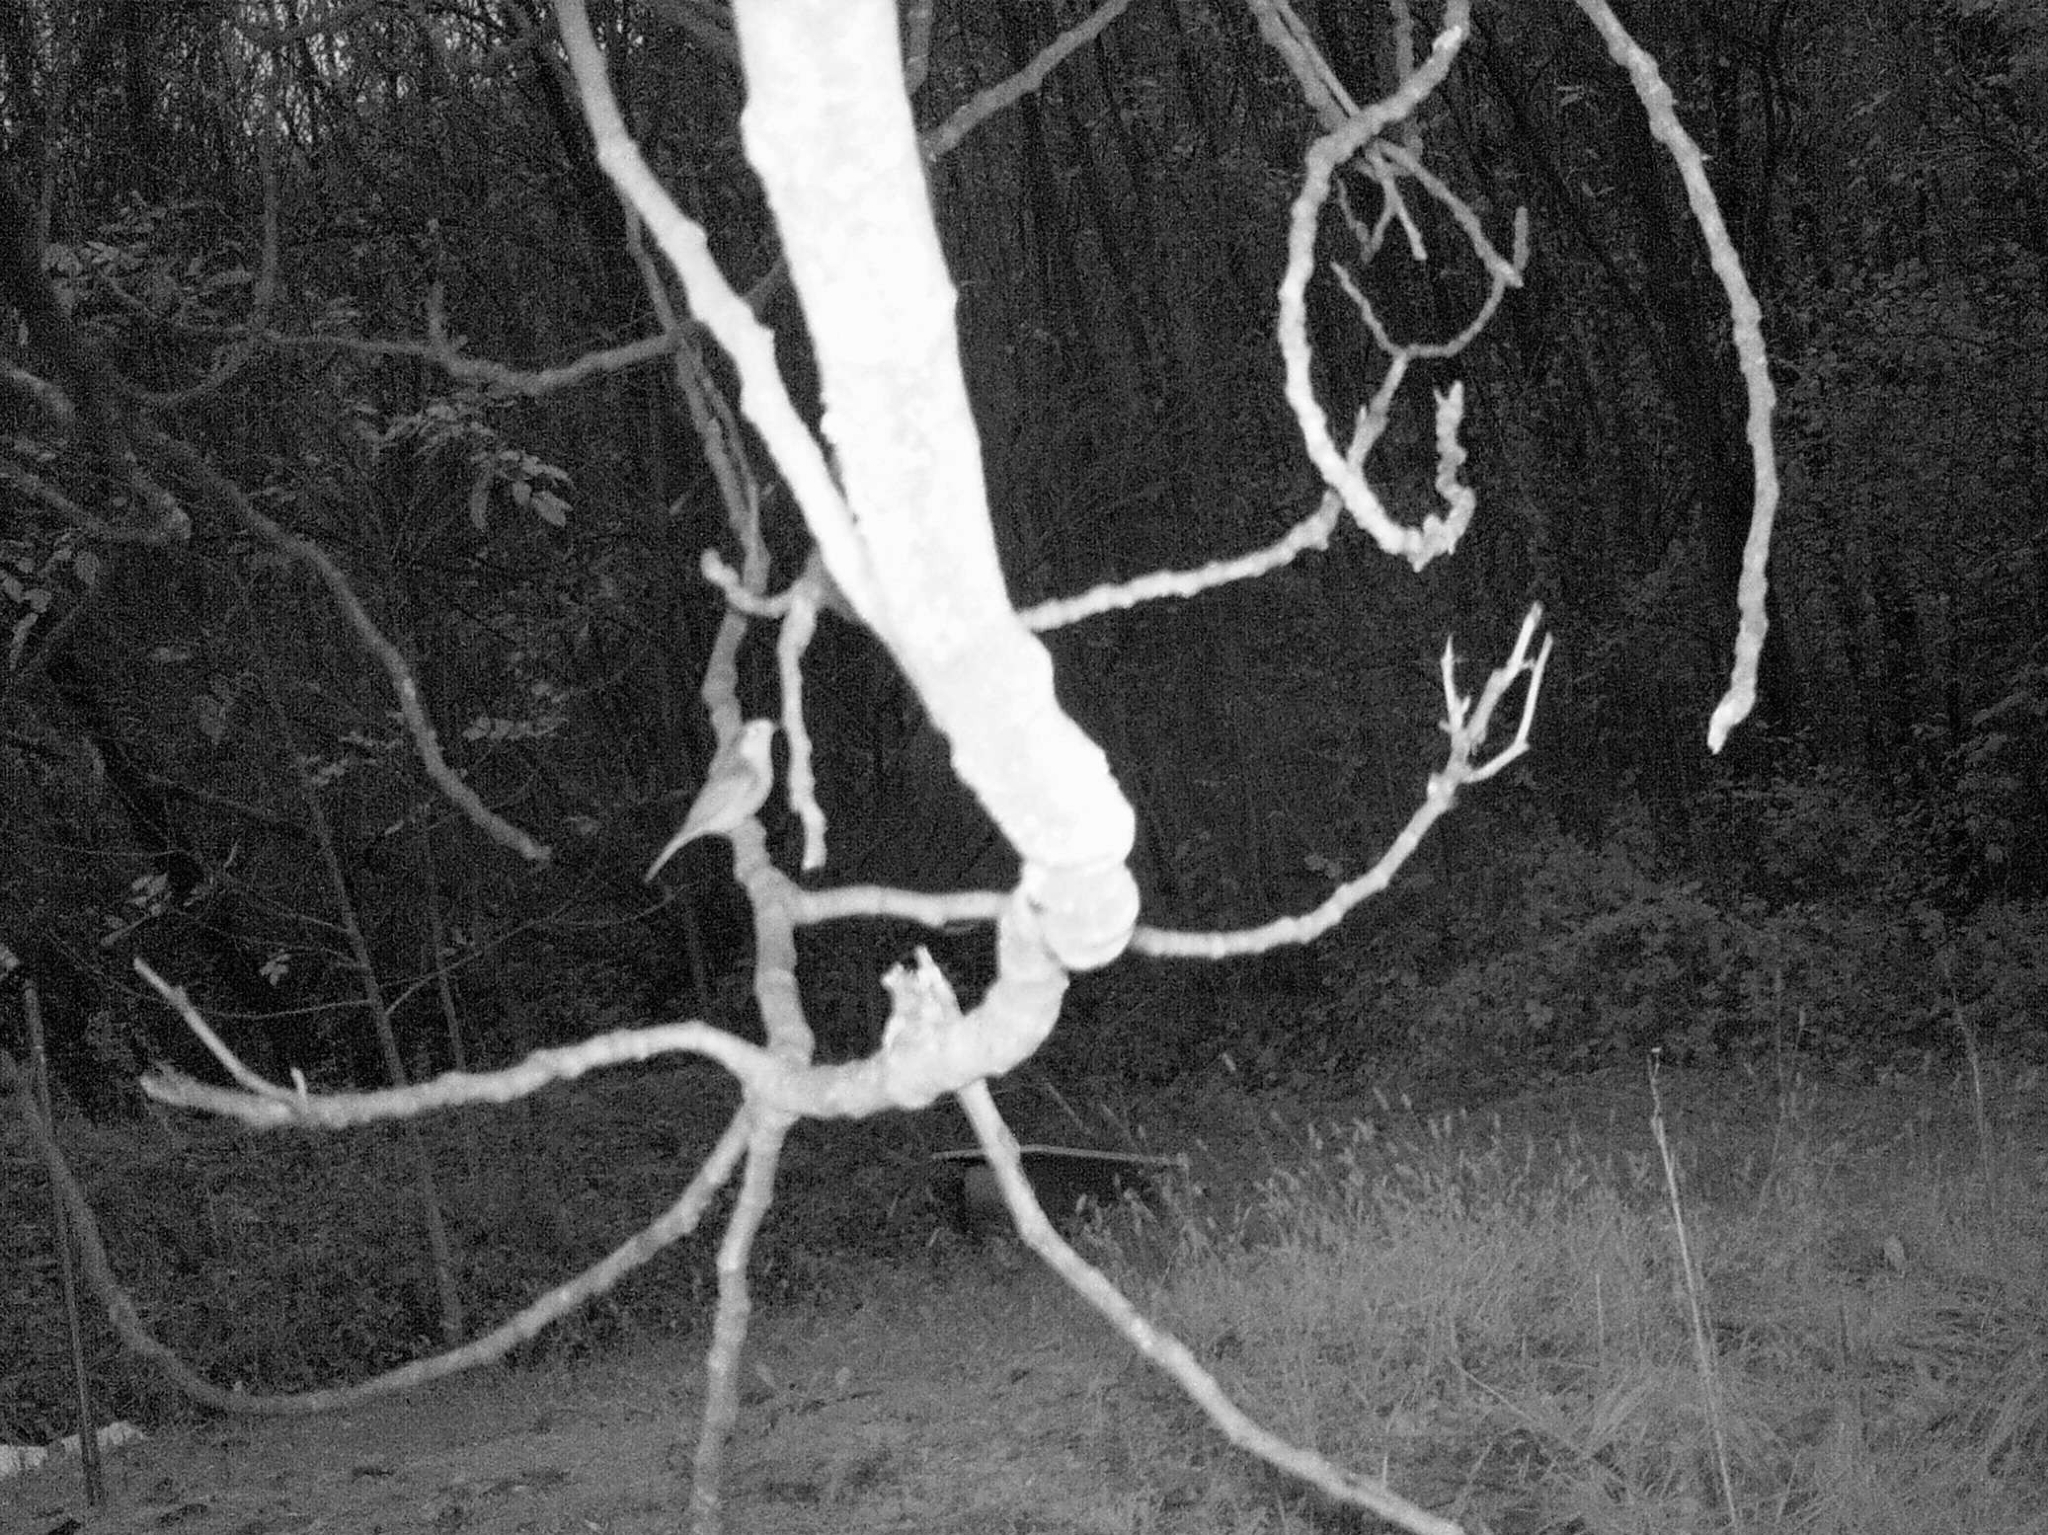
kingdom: Animalia
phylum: Chordata
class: Aves
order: Passeriformes
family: Muscicapidae
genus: Erithacus
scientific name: Erithacus rubecula
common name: European robin
